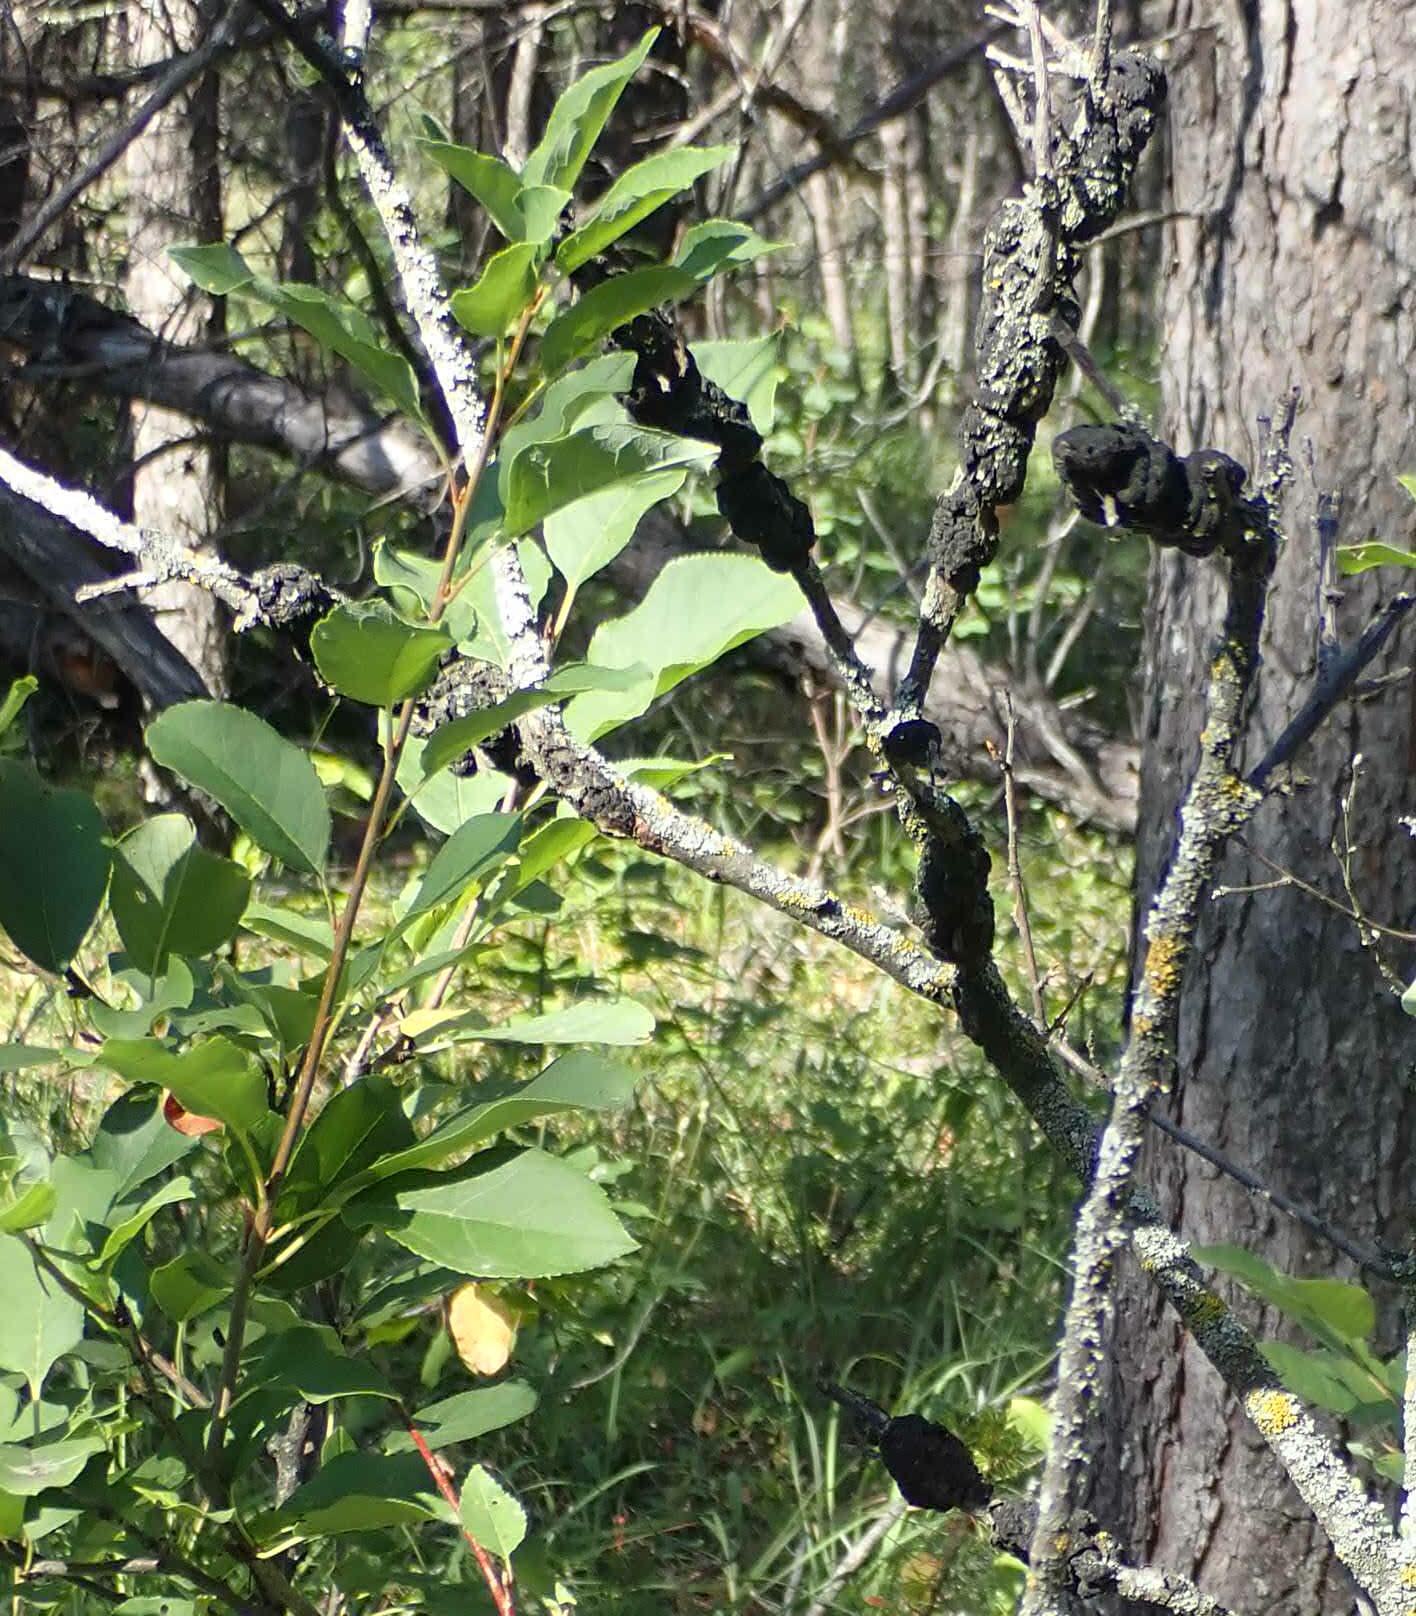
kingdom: Fungi
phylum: Ascomycota
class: Dothideomycetes
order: Venturiales
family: Venturiaceae
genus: Apiosporina
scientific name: Apiosporina morbosa
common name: Black knot
